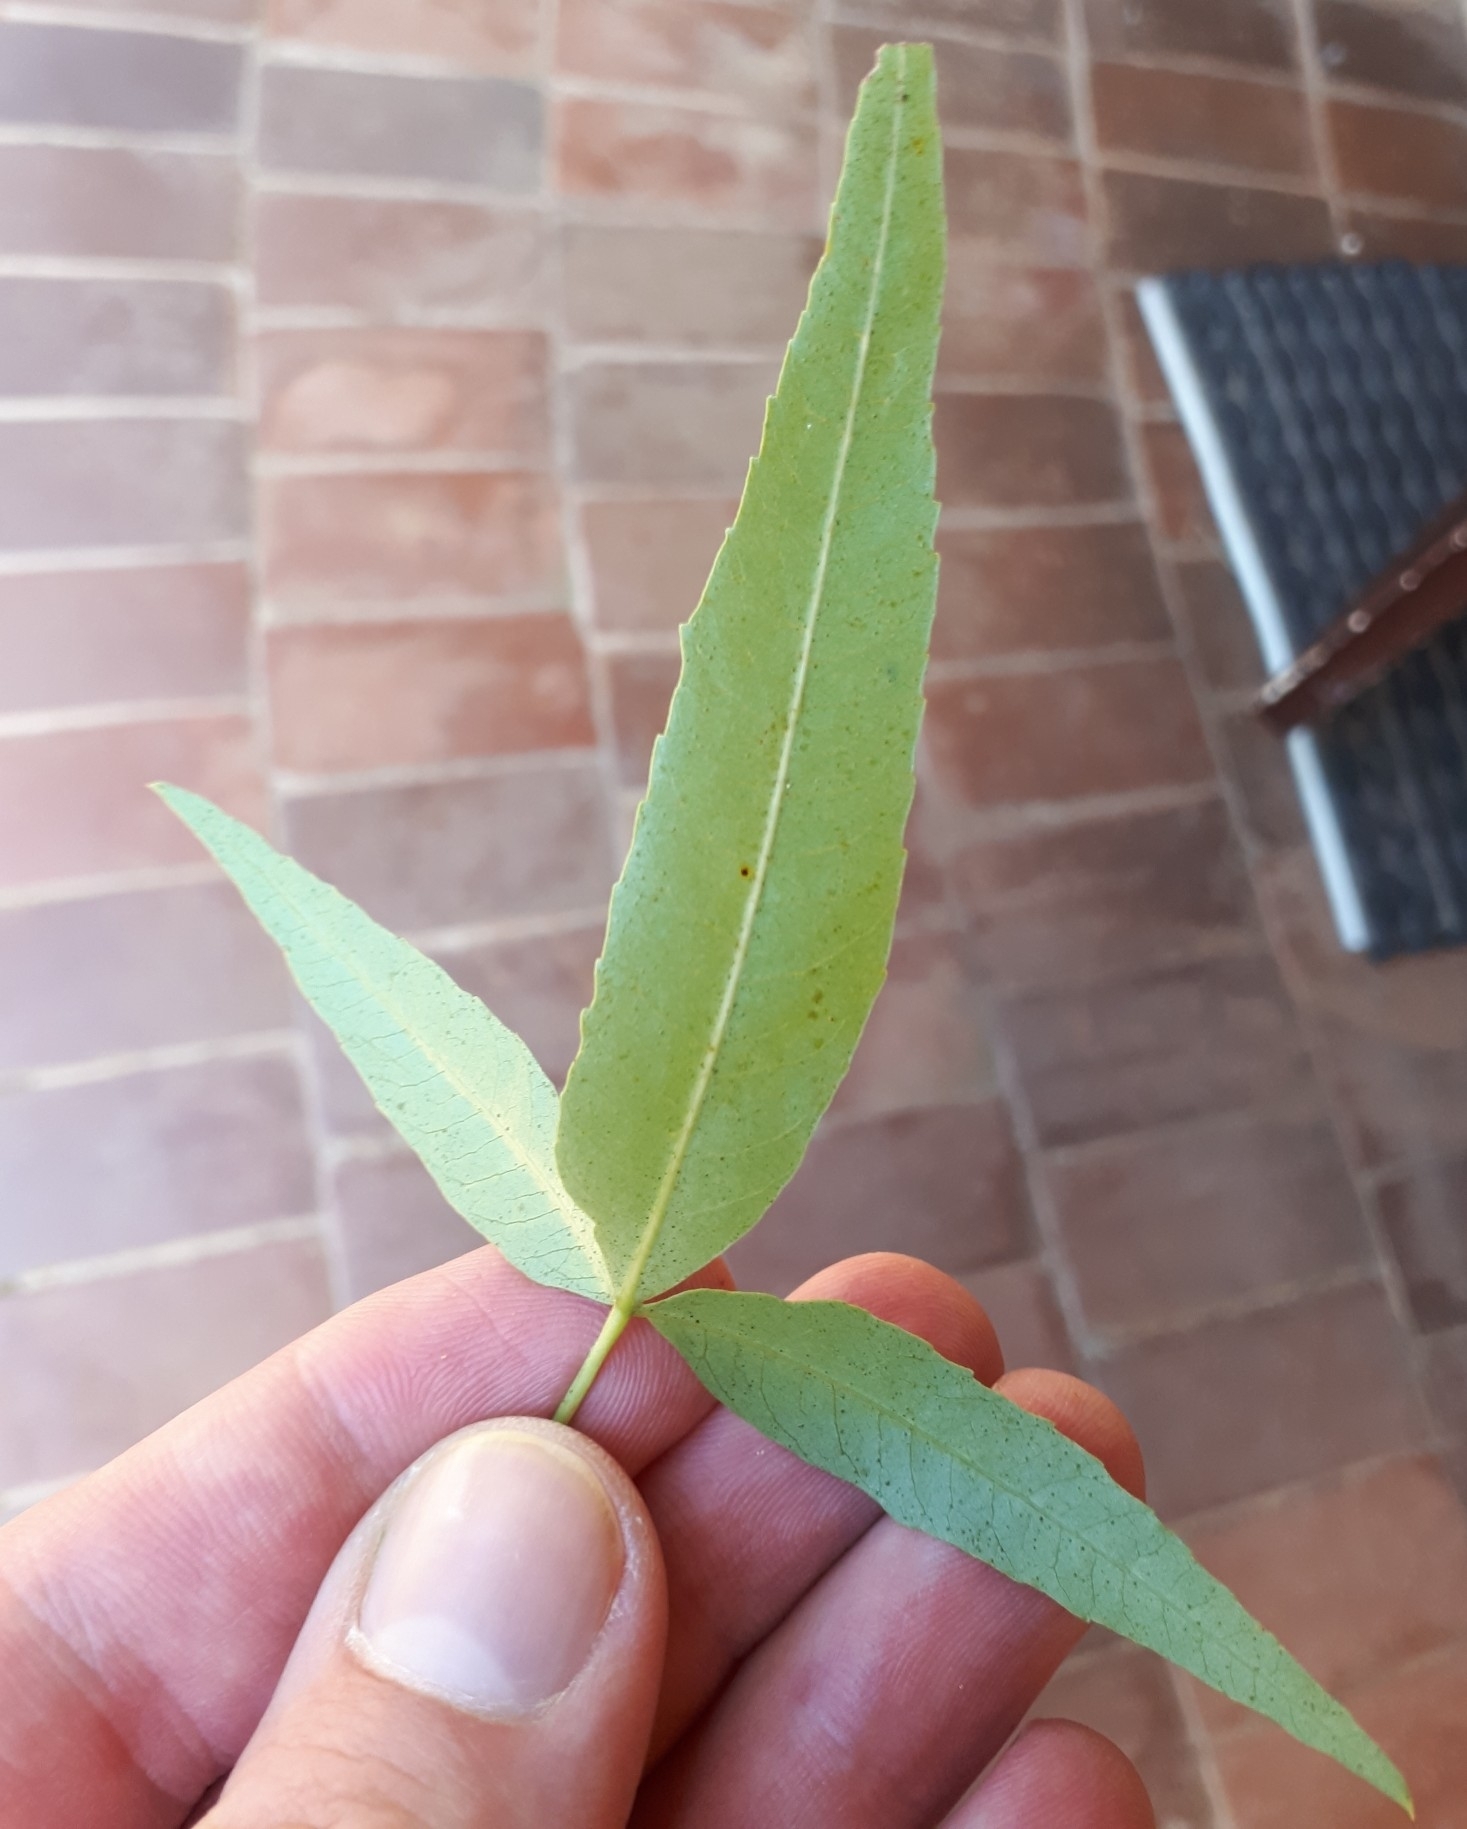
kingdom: Plantae
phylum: Tracheophyta
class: Magnoliopsida
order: Sapindales
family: Anacardiaceae
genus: Searsia
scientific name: Searsia leptodictya
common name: Mountain karee
